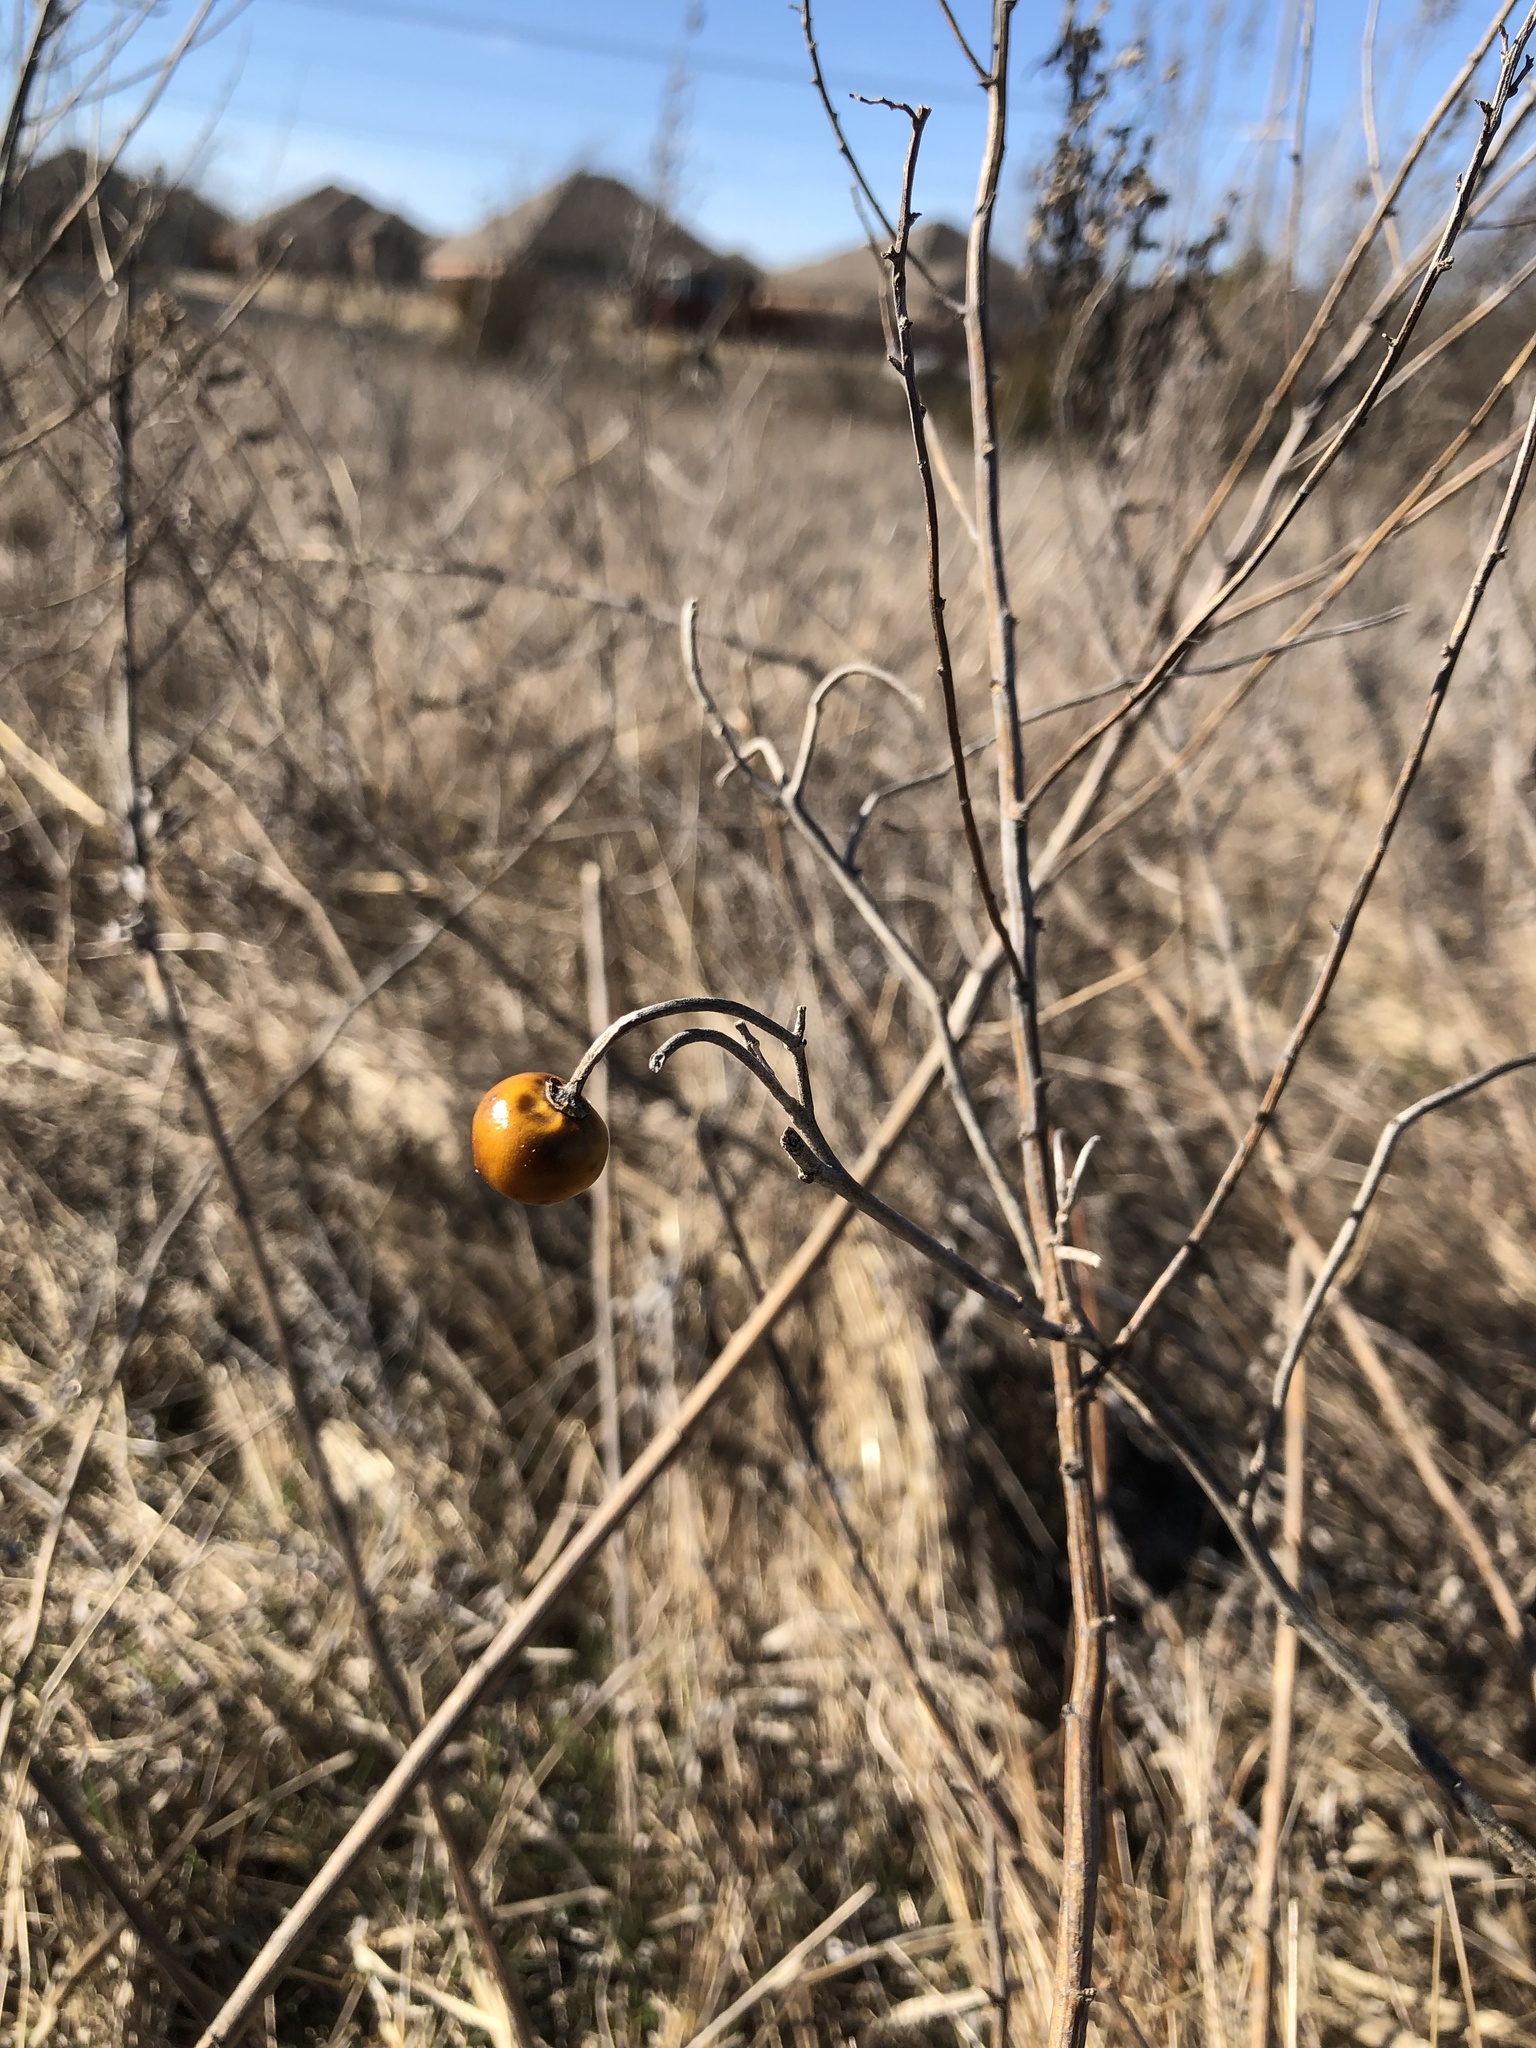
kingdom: Plantae
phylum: Tracheophyta
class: Magnoliopsida
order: Solanales
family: Solanaceae
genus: Solanum
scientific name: Solanum elaeagnifolium
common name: Silverleaf nightshade
